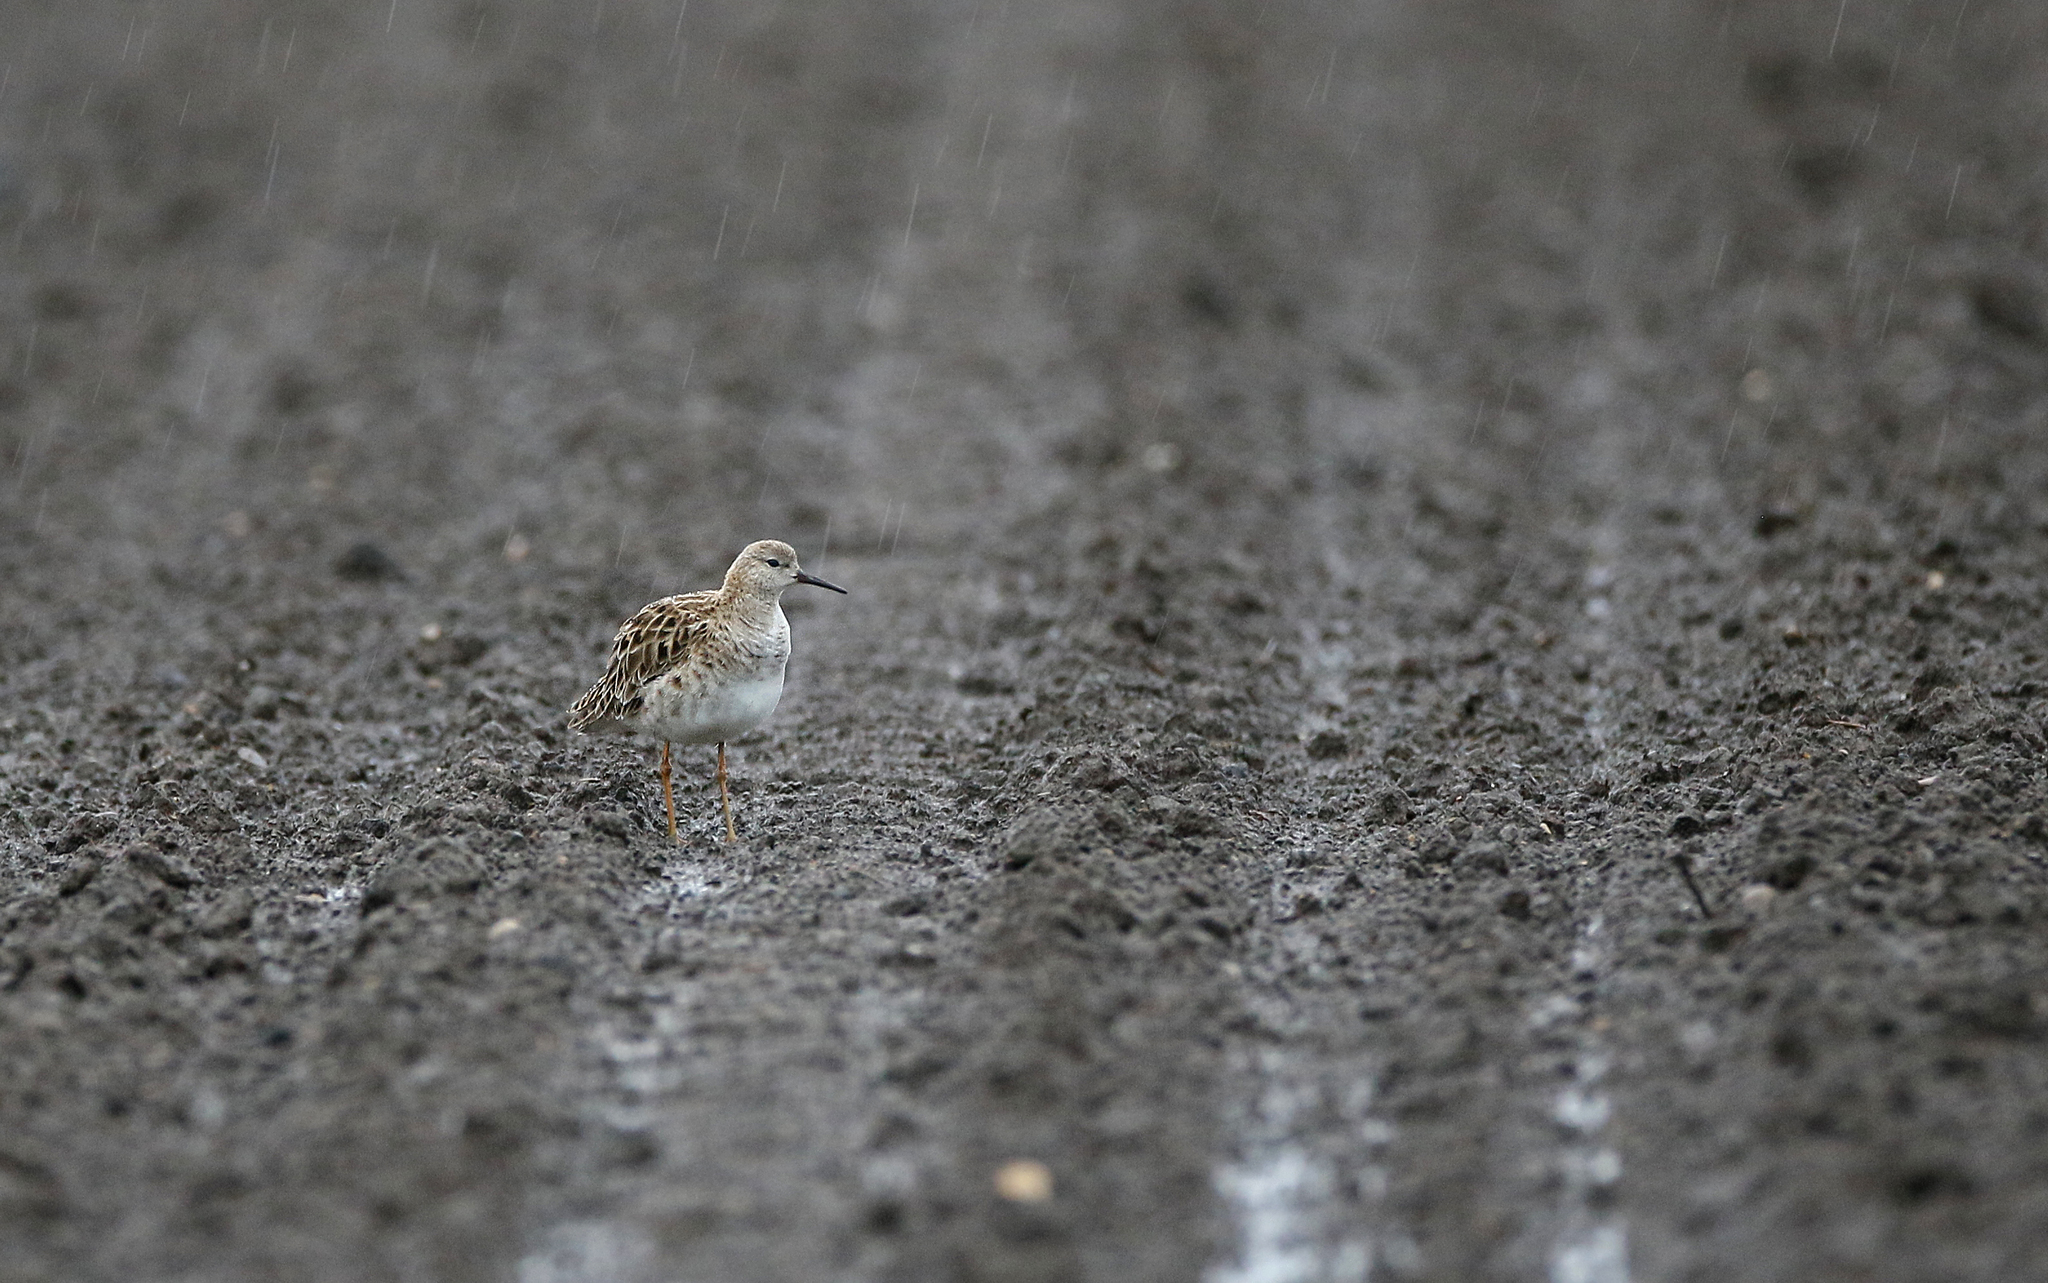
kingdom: Animalia
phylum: Chordata
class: Aves
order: Charadriiformes
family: Scolopacidae
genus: Calidris
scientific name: Calidris pugnax
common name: Ruff
